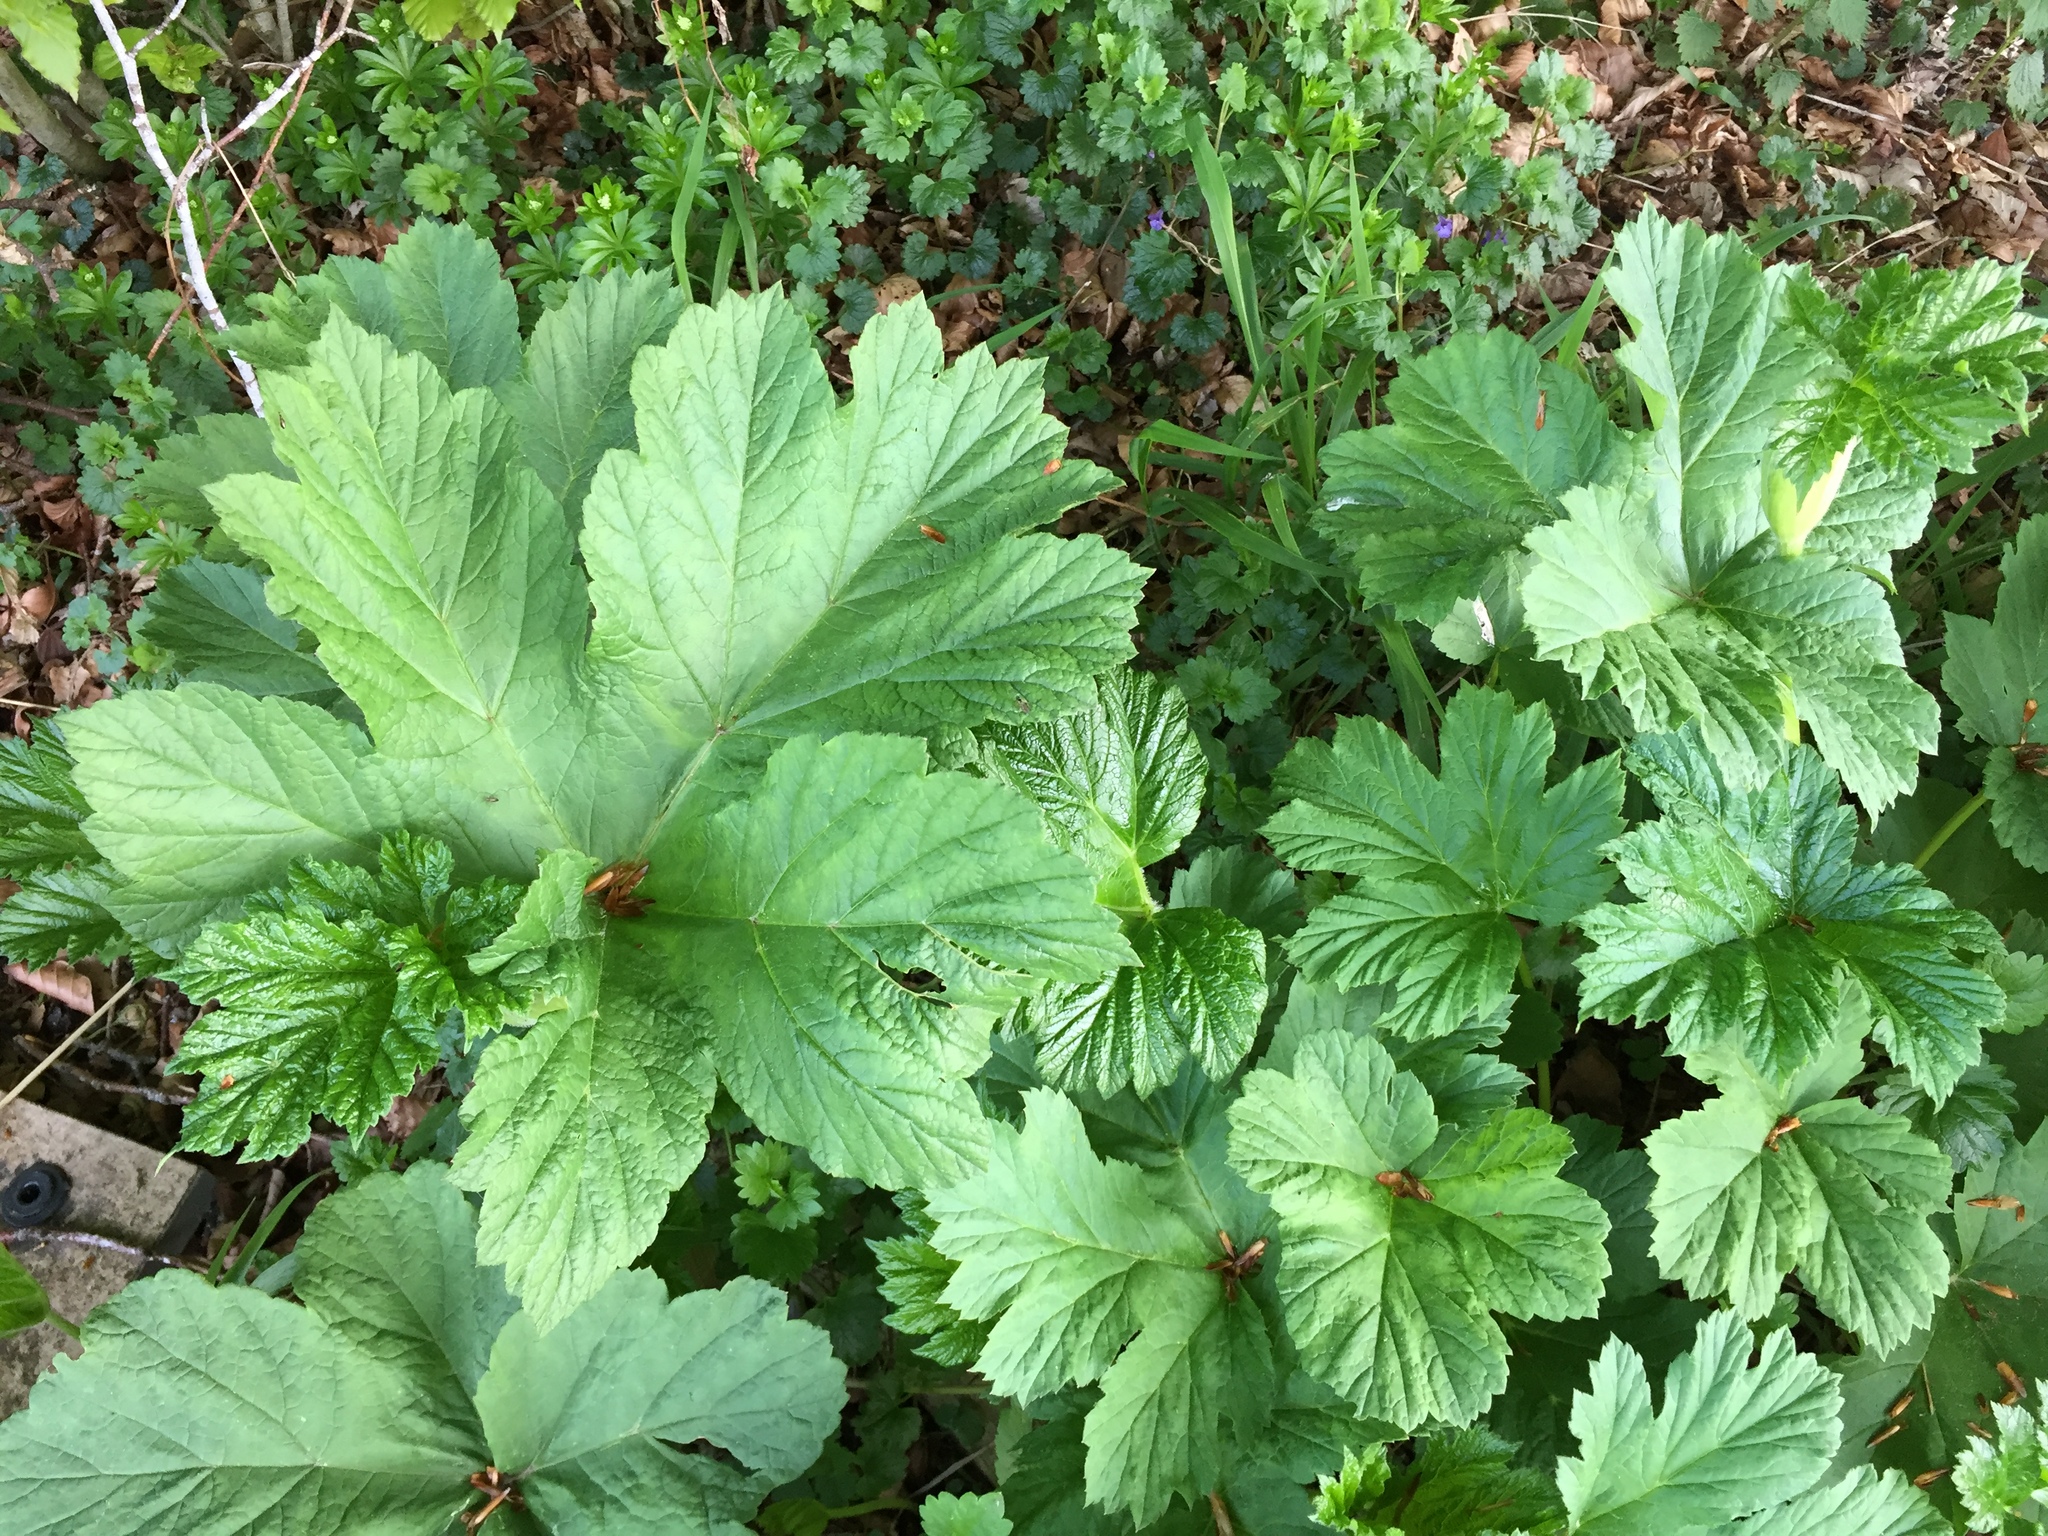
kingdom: Plantae
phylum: Tracheophyta
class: Magnoliopsida
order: Apiales
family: Apiaceae
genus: Heracleum
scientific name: Heracleum sphondylium
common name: Hogweed
